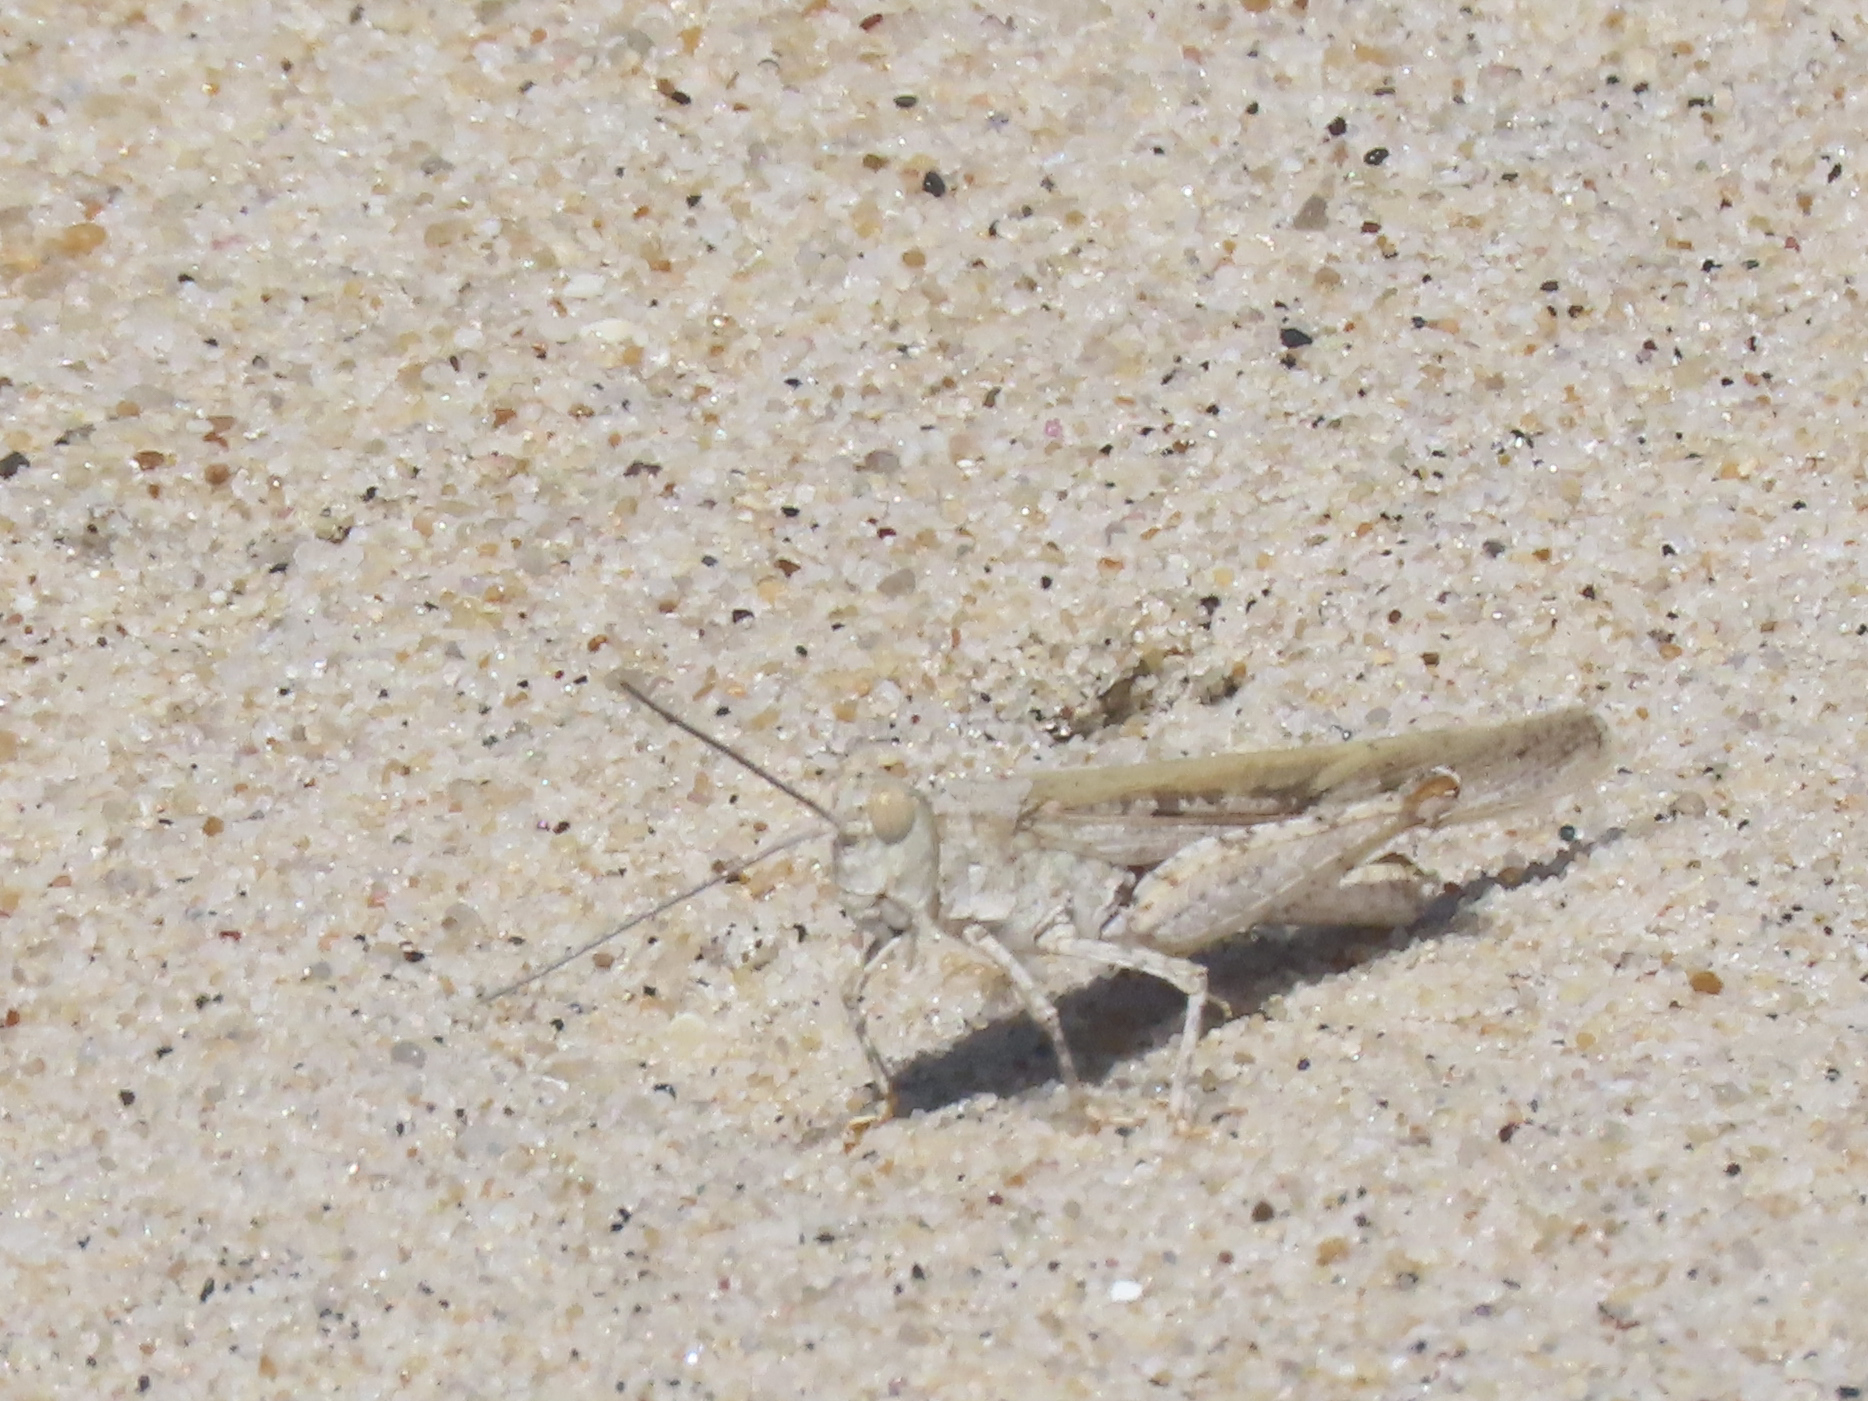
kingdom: Animalia
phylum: Arthropoda
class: Insecta
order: Orthoptera
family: Acrididae
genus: Trimerotropis
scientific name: Trimerotropis maritima
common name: Seaside locust
